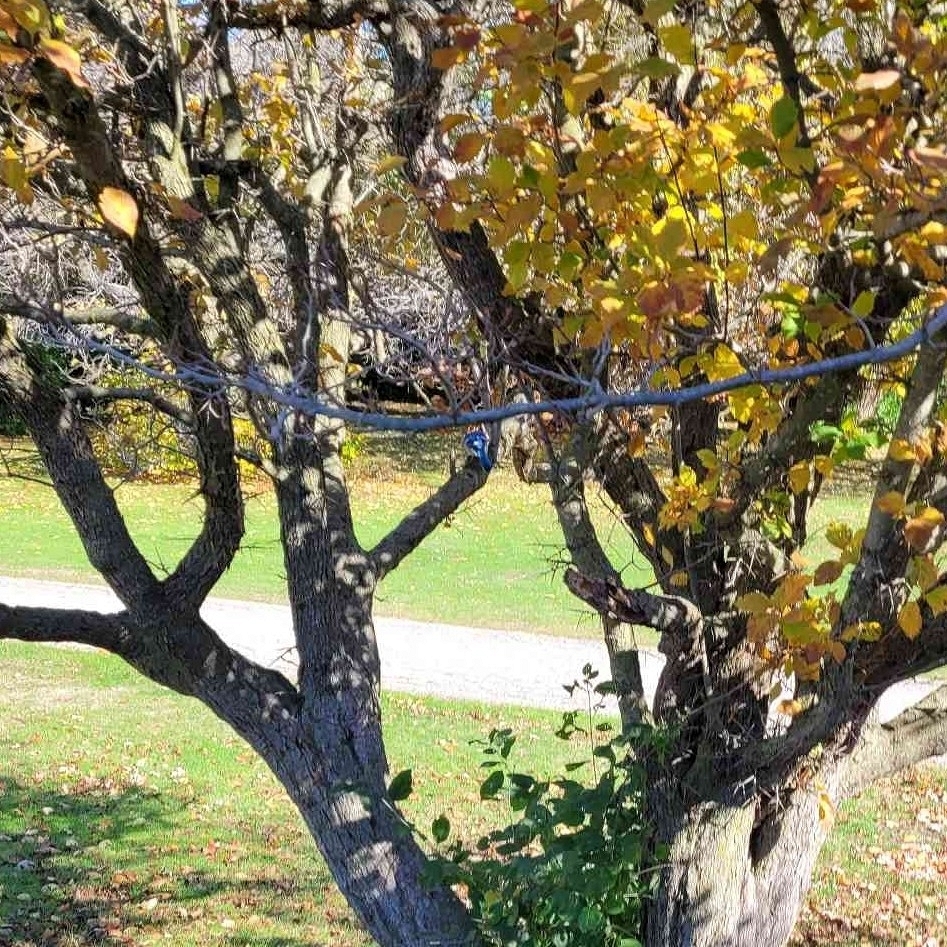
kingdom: Animalia
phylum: Chordata
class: Aves
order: Passeriformes
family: Corvidae
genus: Cyanocitta
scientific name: Cyanocitta cristata
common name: Blue jay
